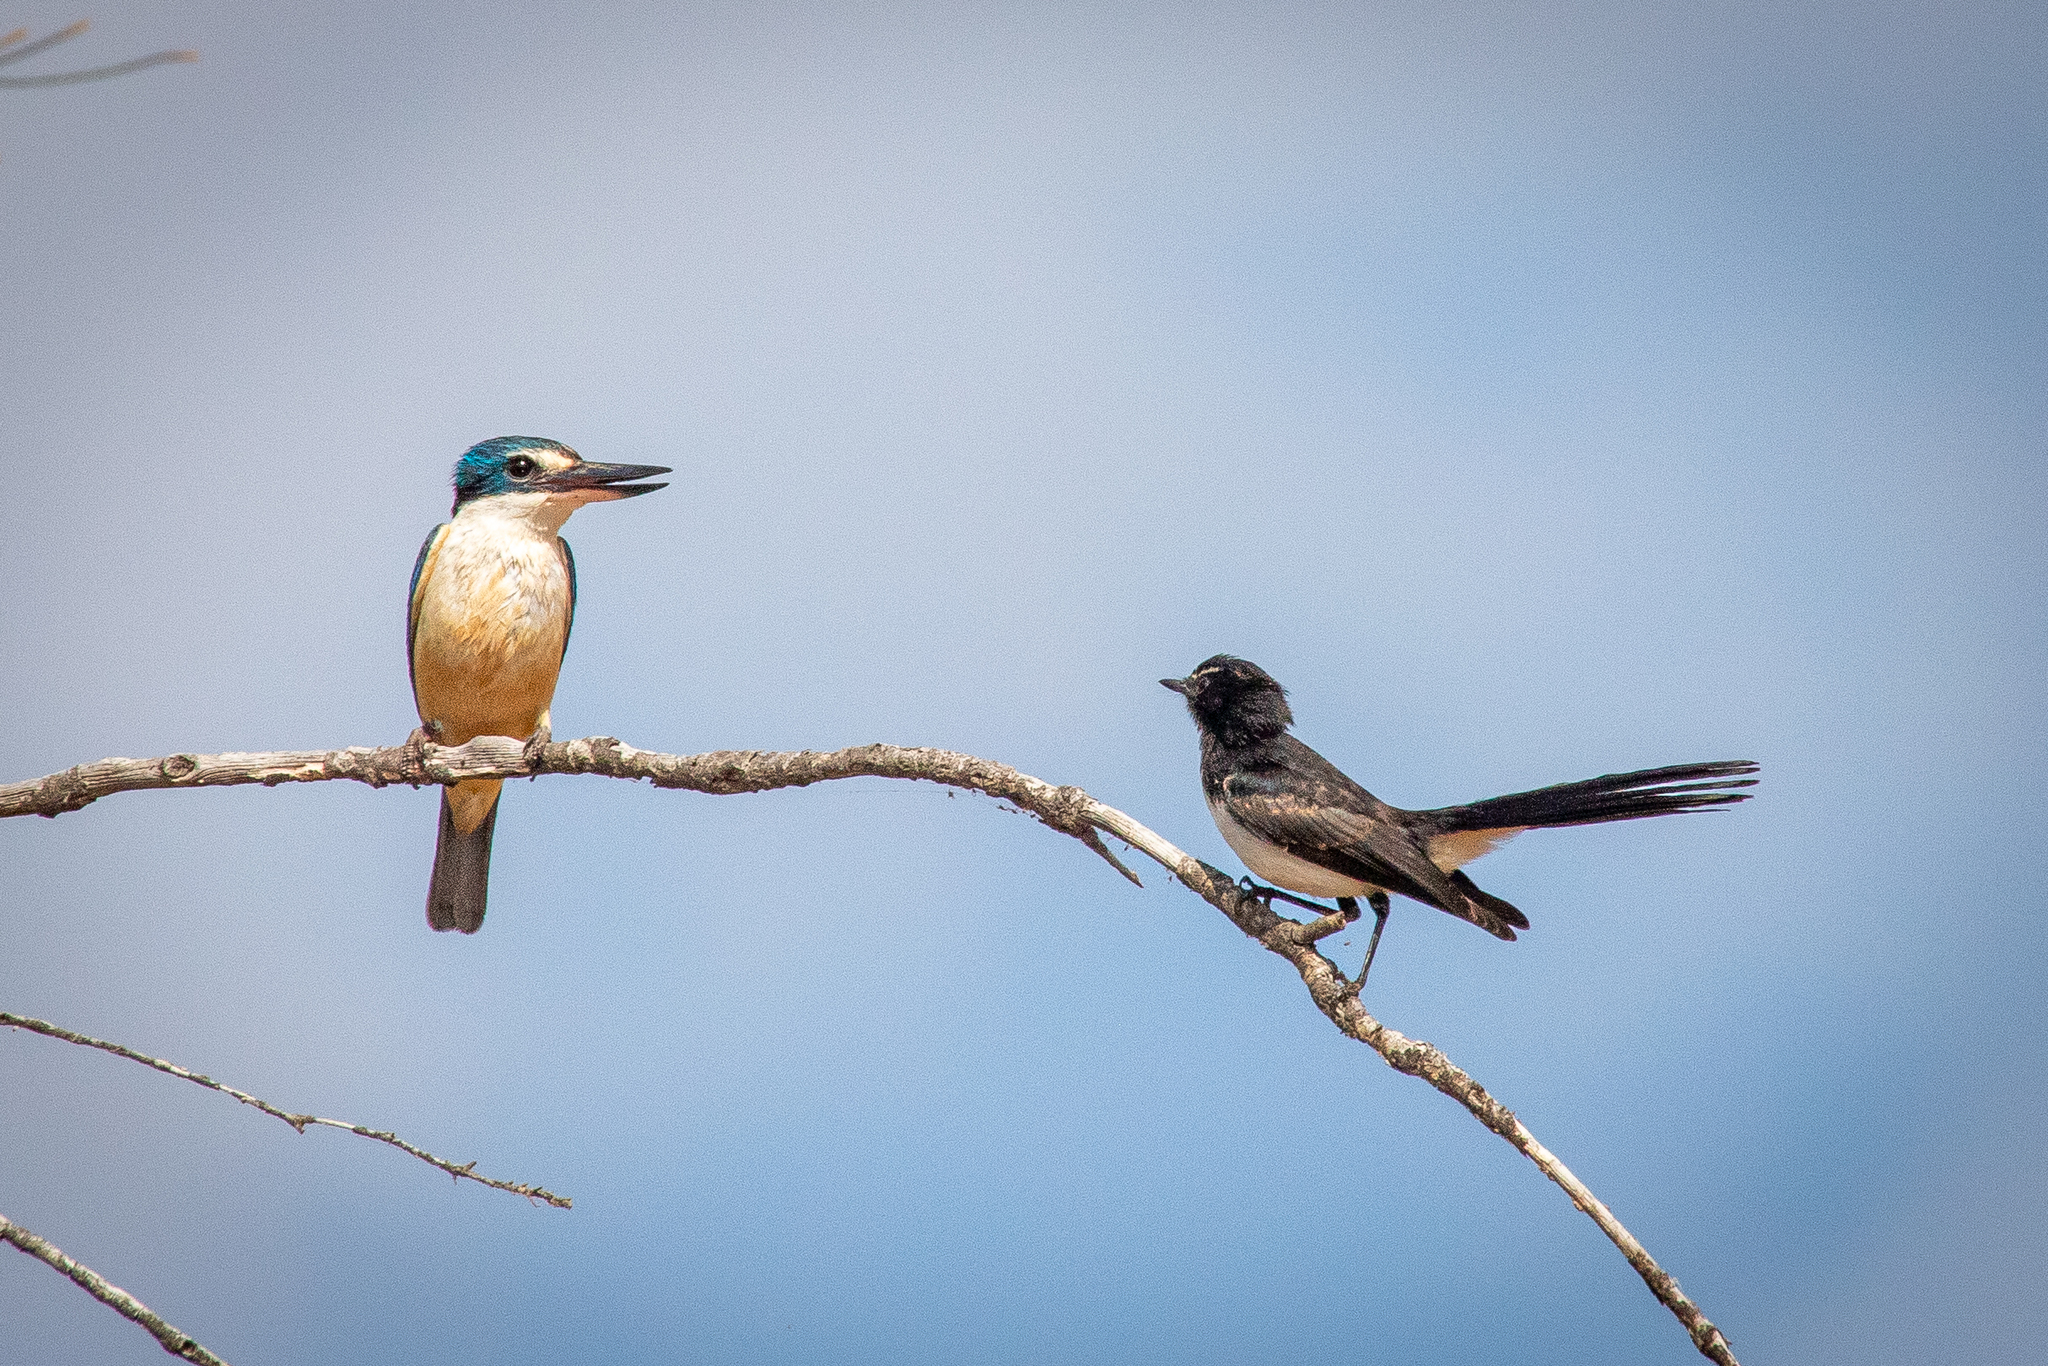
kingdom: Animalia
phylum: Chordata
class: Aves
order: Coraciiformes
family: Alcedinidae
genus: Todiramphus
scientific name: Todiramphus sanctus
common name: Sacred kingfisher
